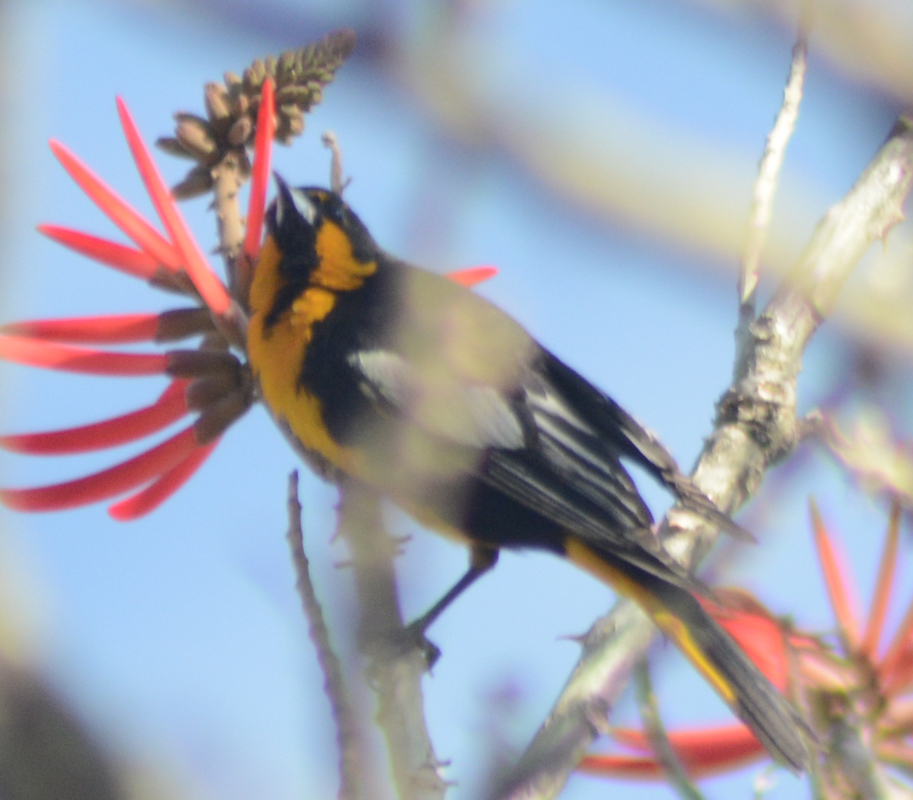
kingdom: Animalia
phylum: Chordata
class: Aves
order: Passeriformes
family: Icteridae
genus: Icterus
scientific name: Icterus abeillei
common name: Black-backed oriole
